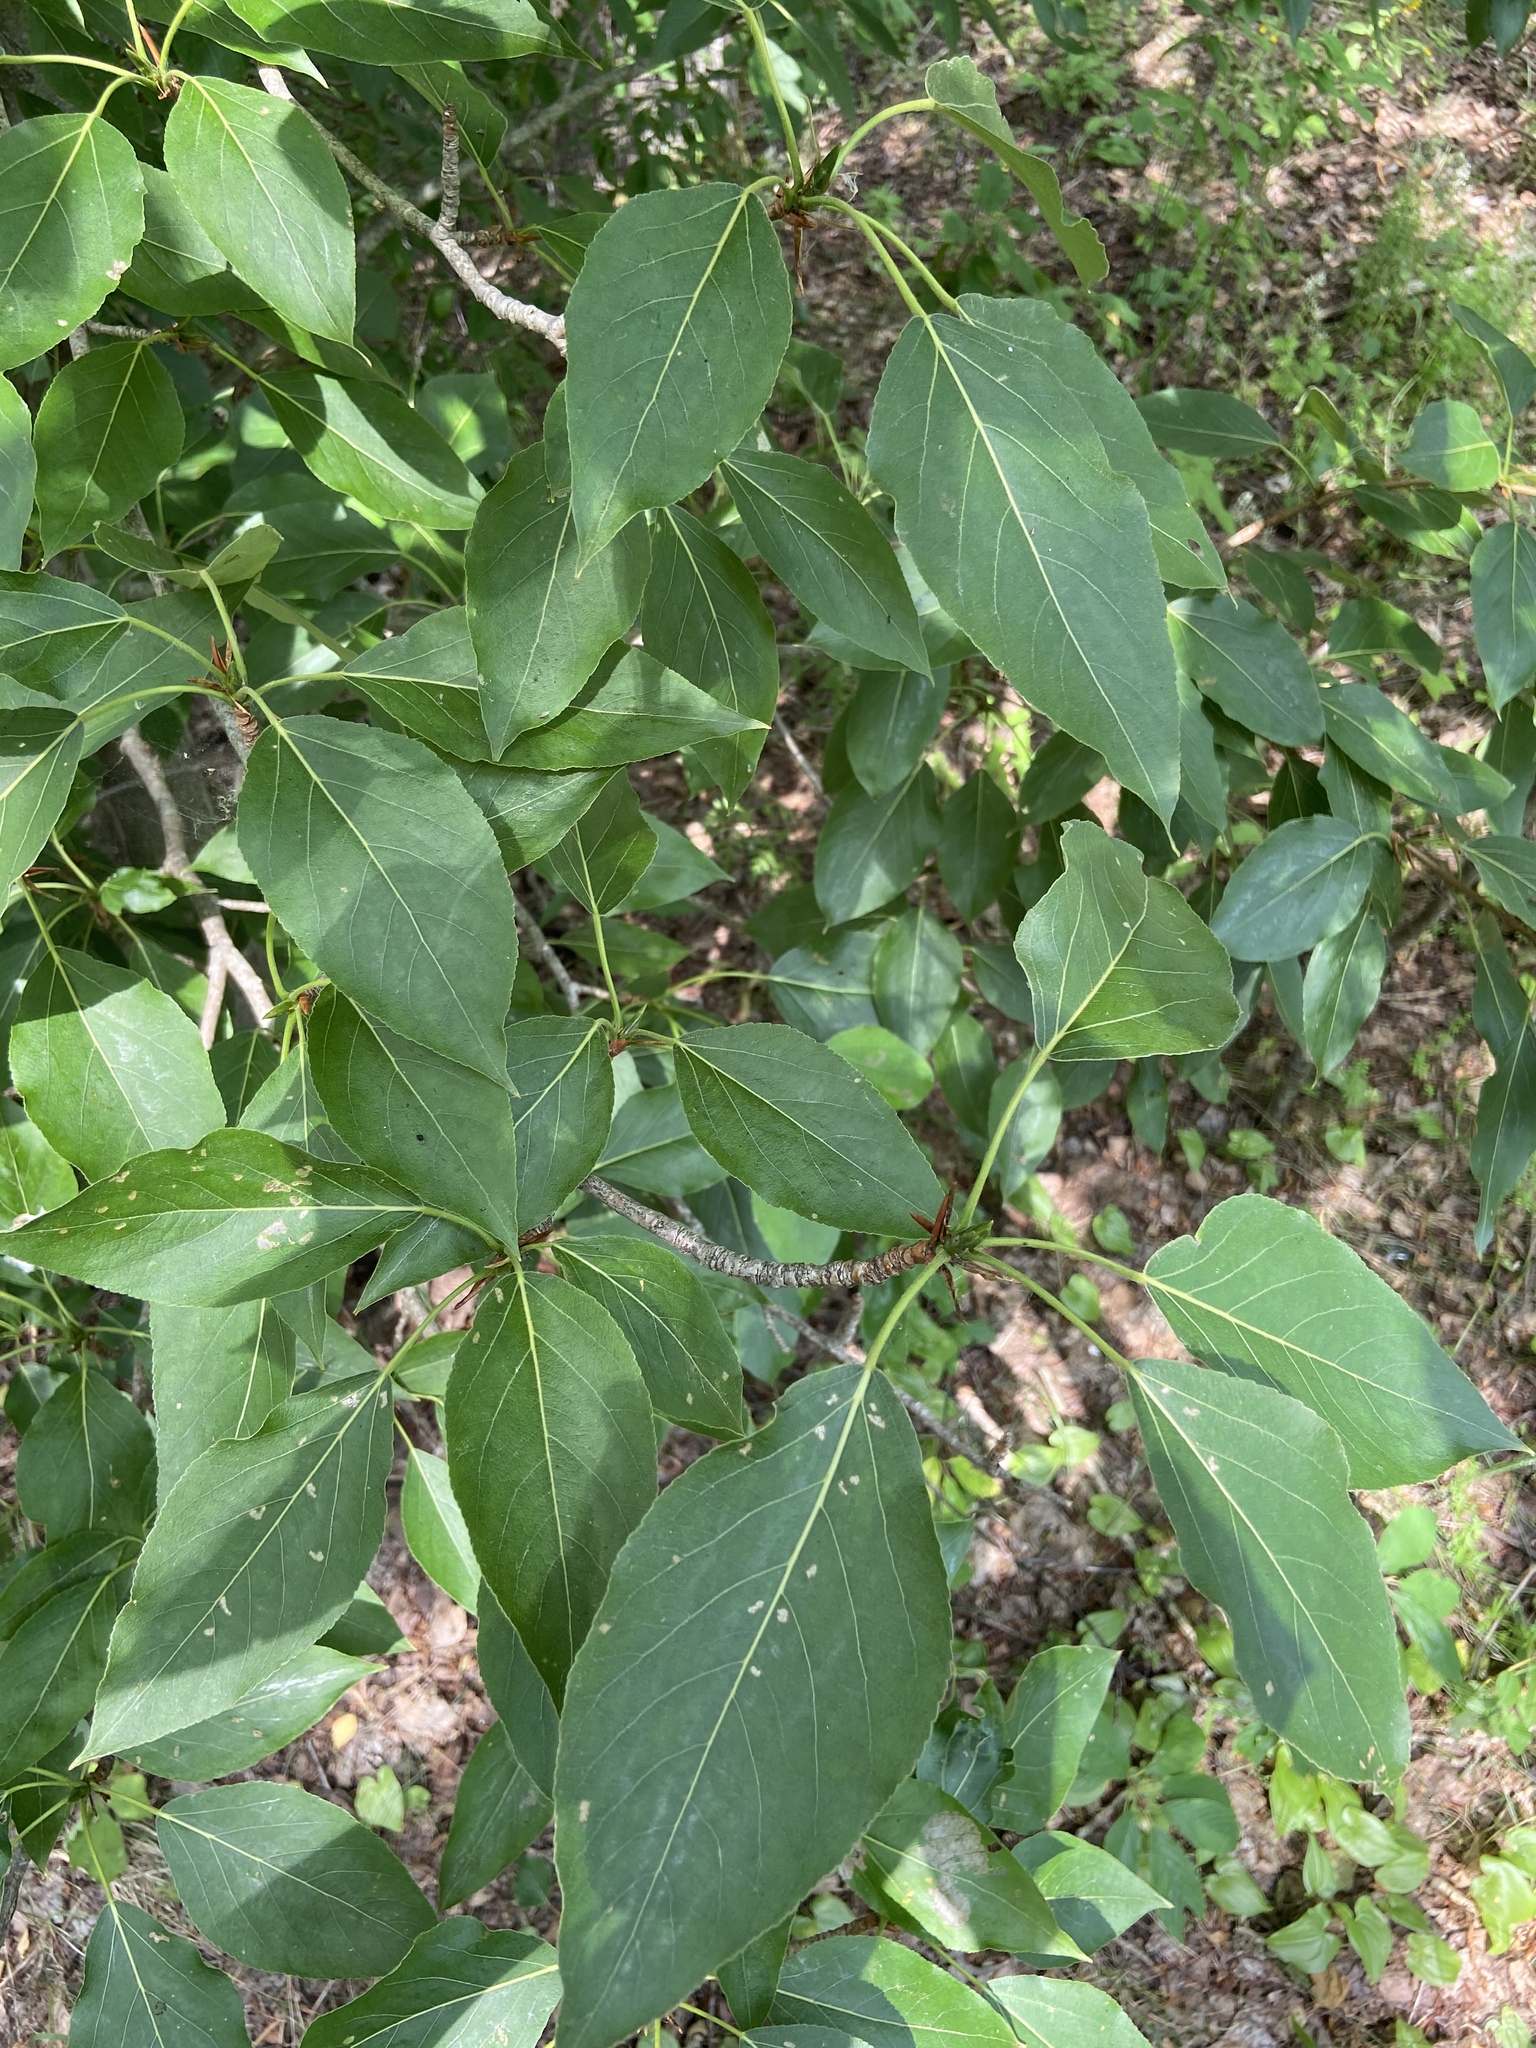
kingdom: Plantae
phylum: Tracheophyta
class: Magnoliopsida
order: Dipsacales
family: Viburnaceae
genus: Sambucus
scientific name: Sambucus racemosa
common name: Red-berried elder
